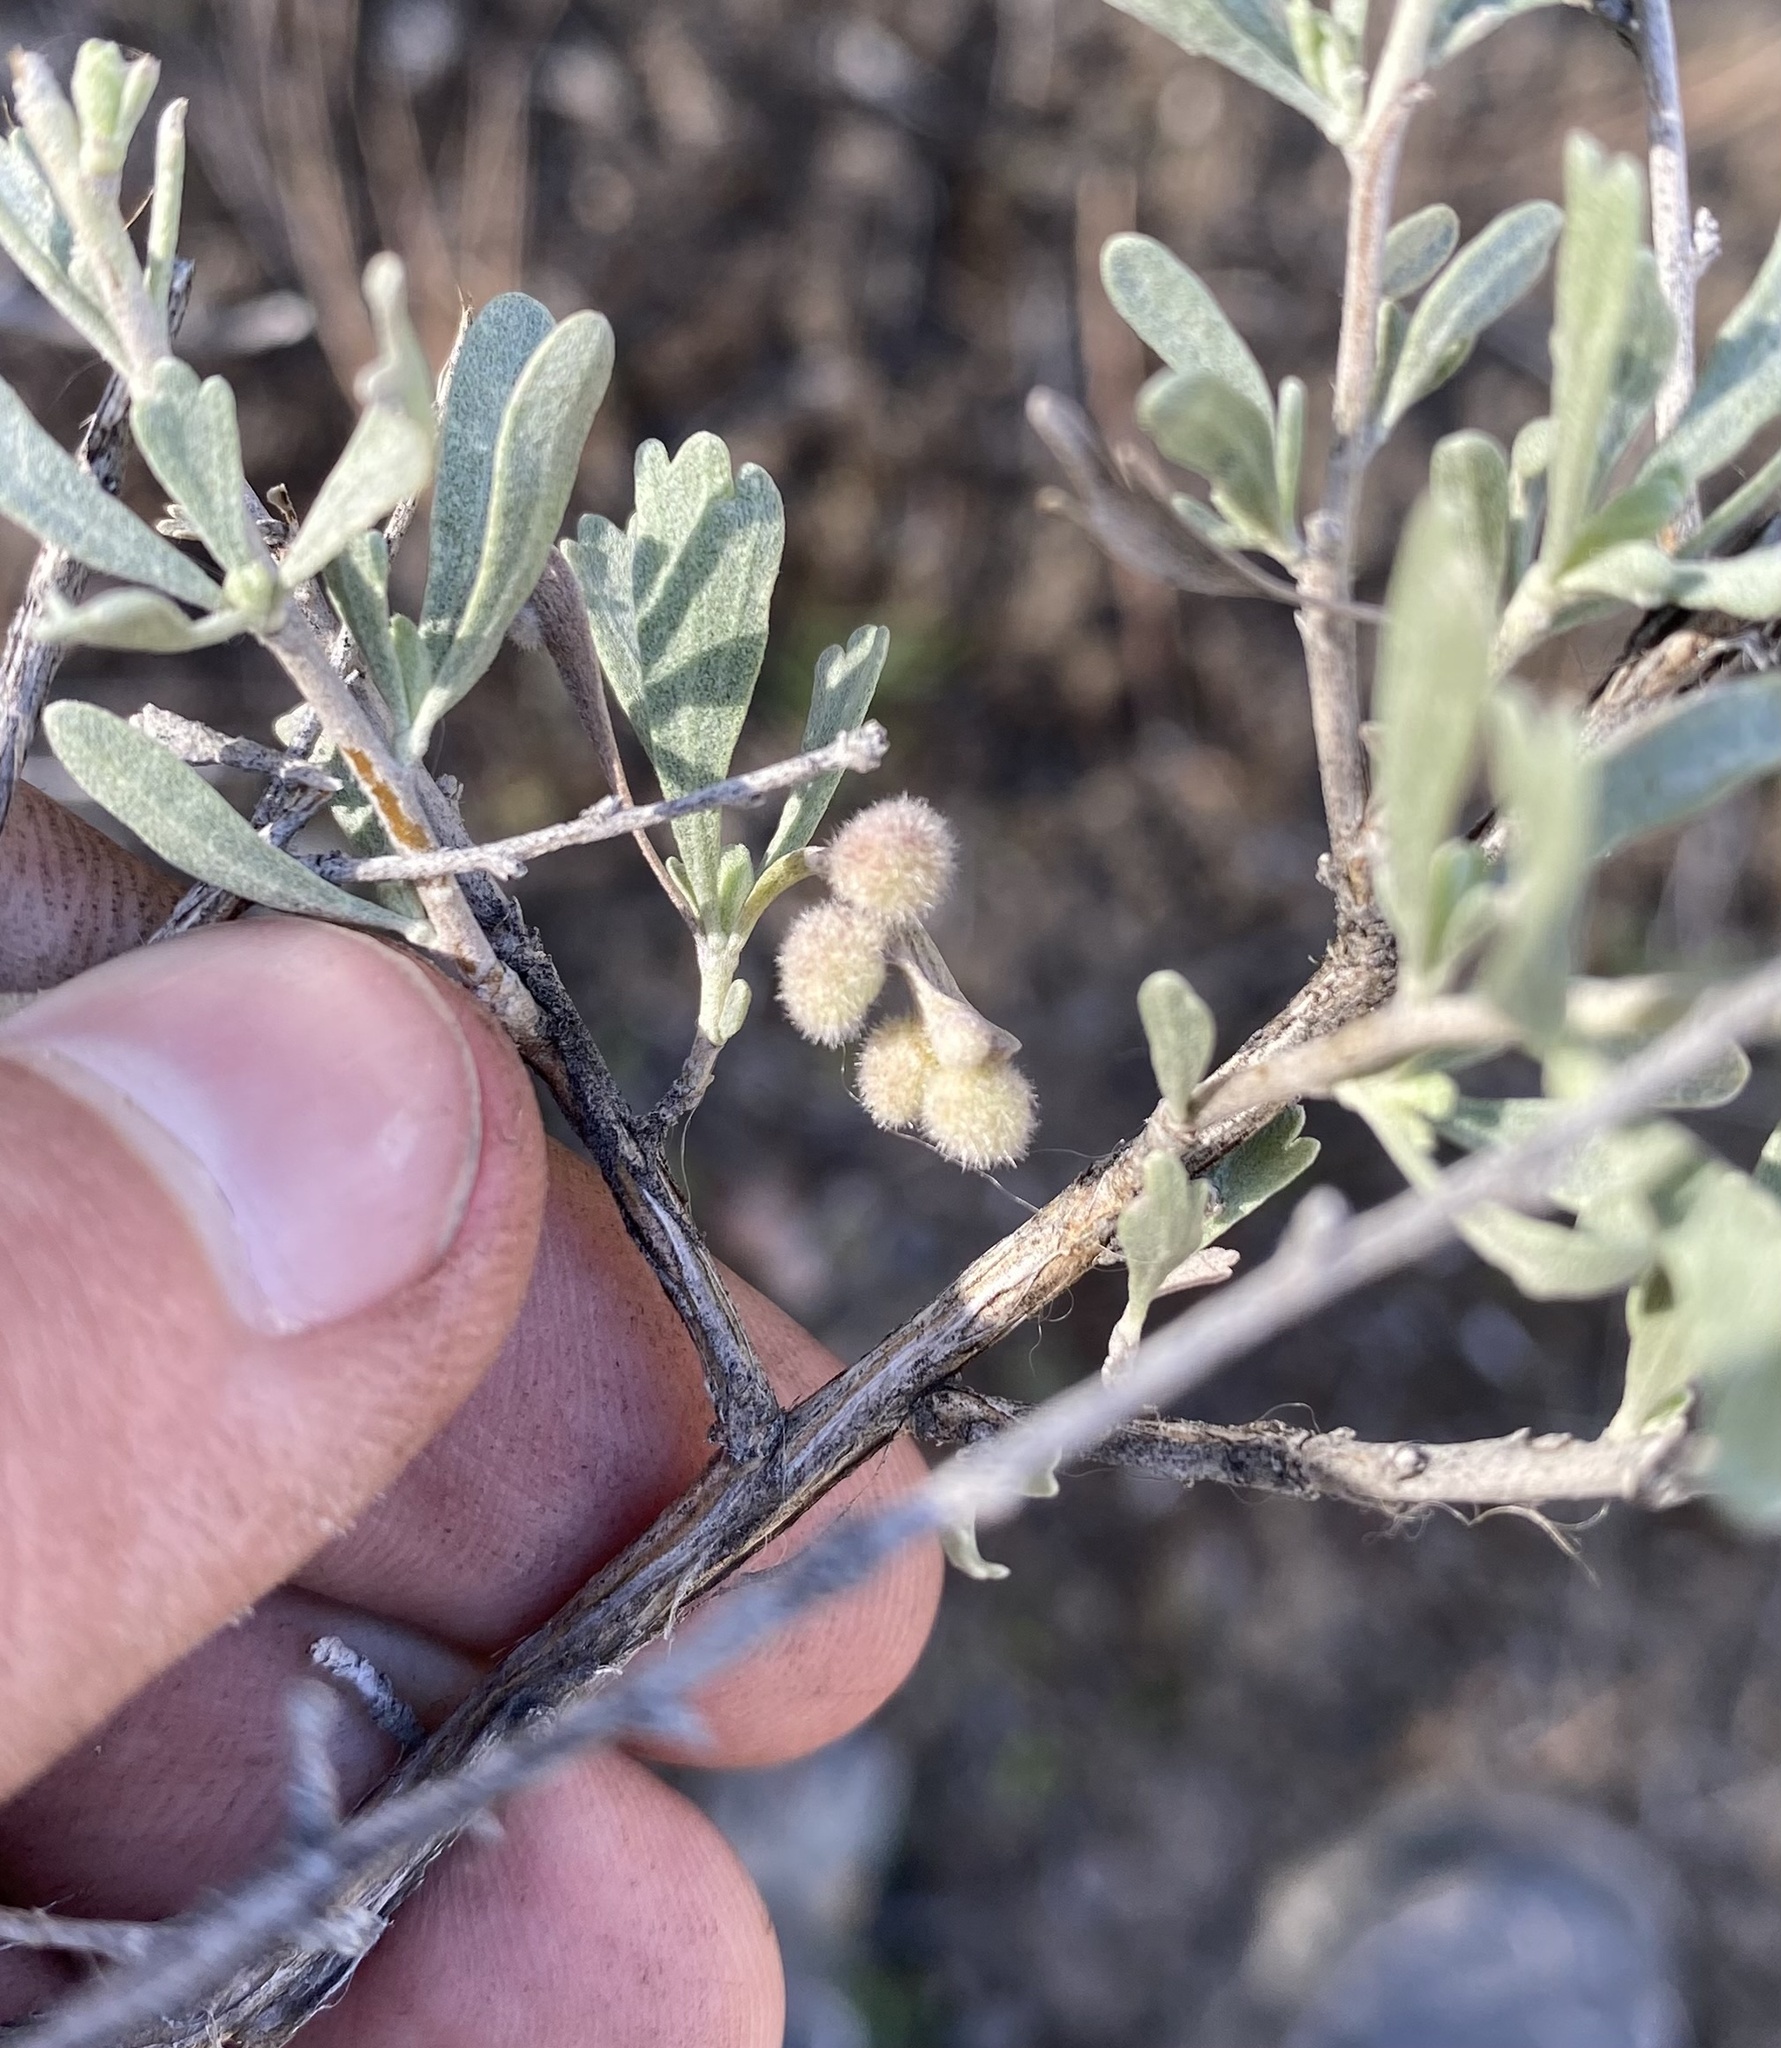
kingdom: Animalia
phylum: Arthropoda
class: Insecta
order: Diptera
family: Cecidomyiidae
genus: Rhopalomyia
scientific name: Rhopalomyia hirtipomum
